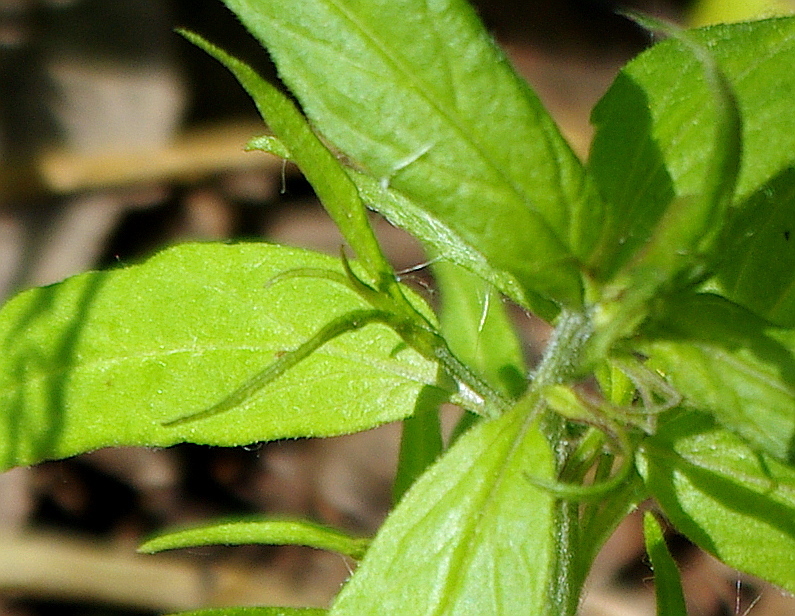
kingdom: Plantae
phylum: Tracheophyta
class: Magnoliopsida
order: Lamiales
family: Orobanchaceae
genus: Melampyrum
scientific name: Melampyrum nemorosum
